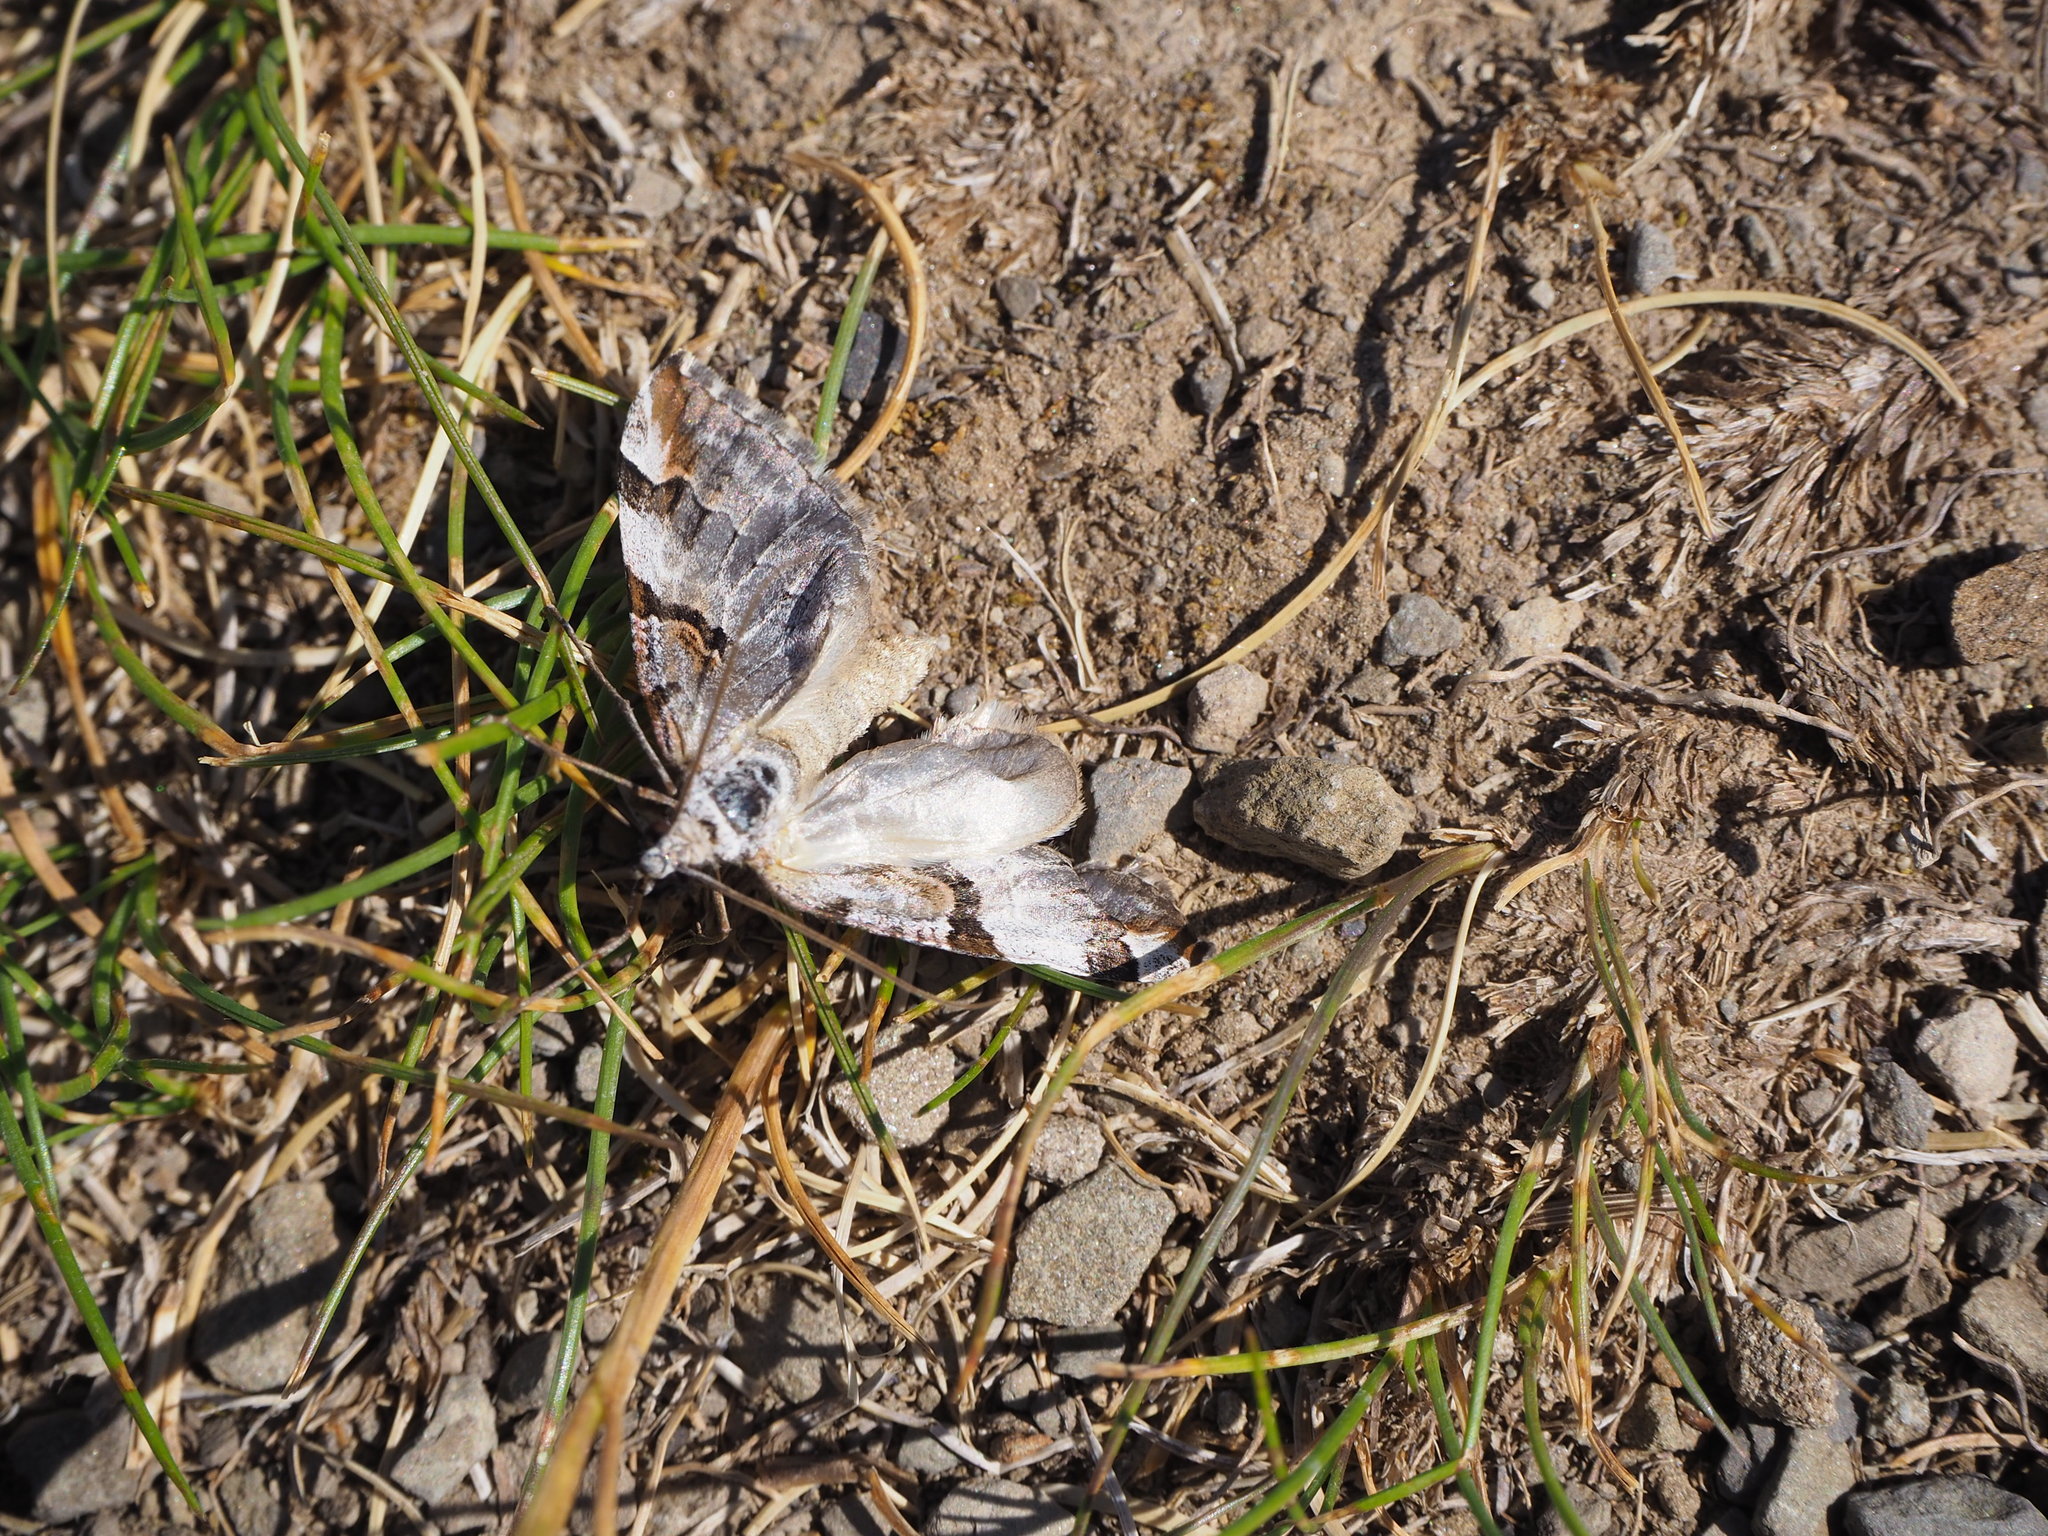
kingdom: Animalia
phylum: Arthropoda
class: Insecta
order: Lepidoptera
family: Geometridae
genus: Aplocera
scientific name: Aplocera praeformata
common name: Purple treble-bar
